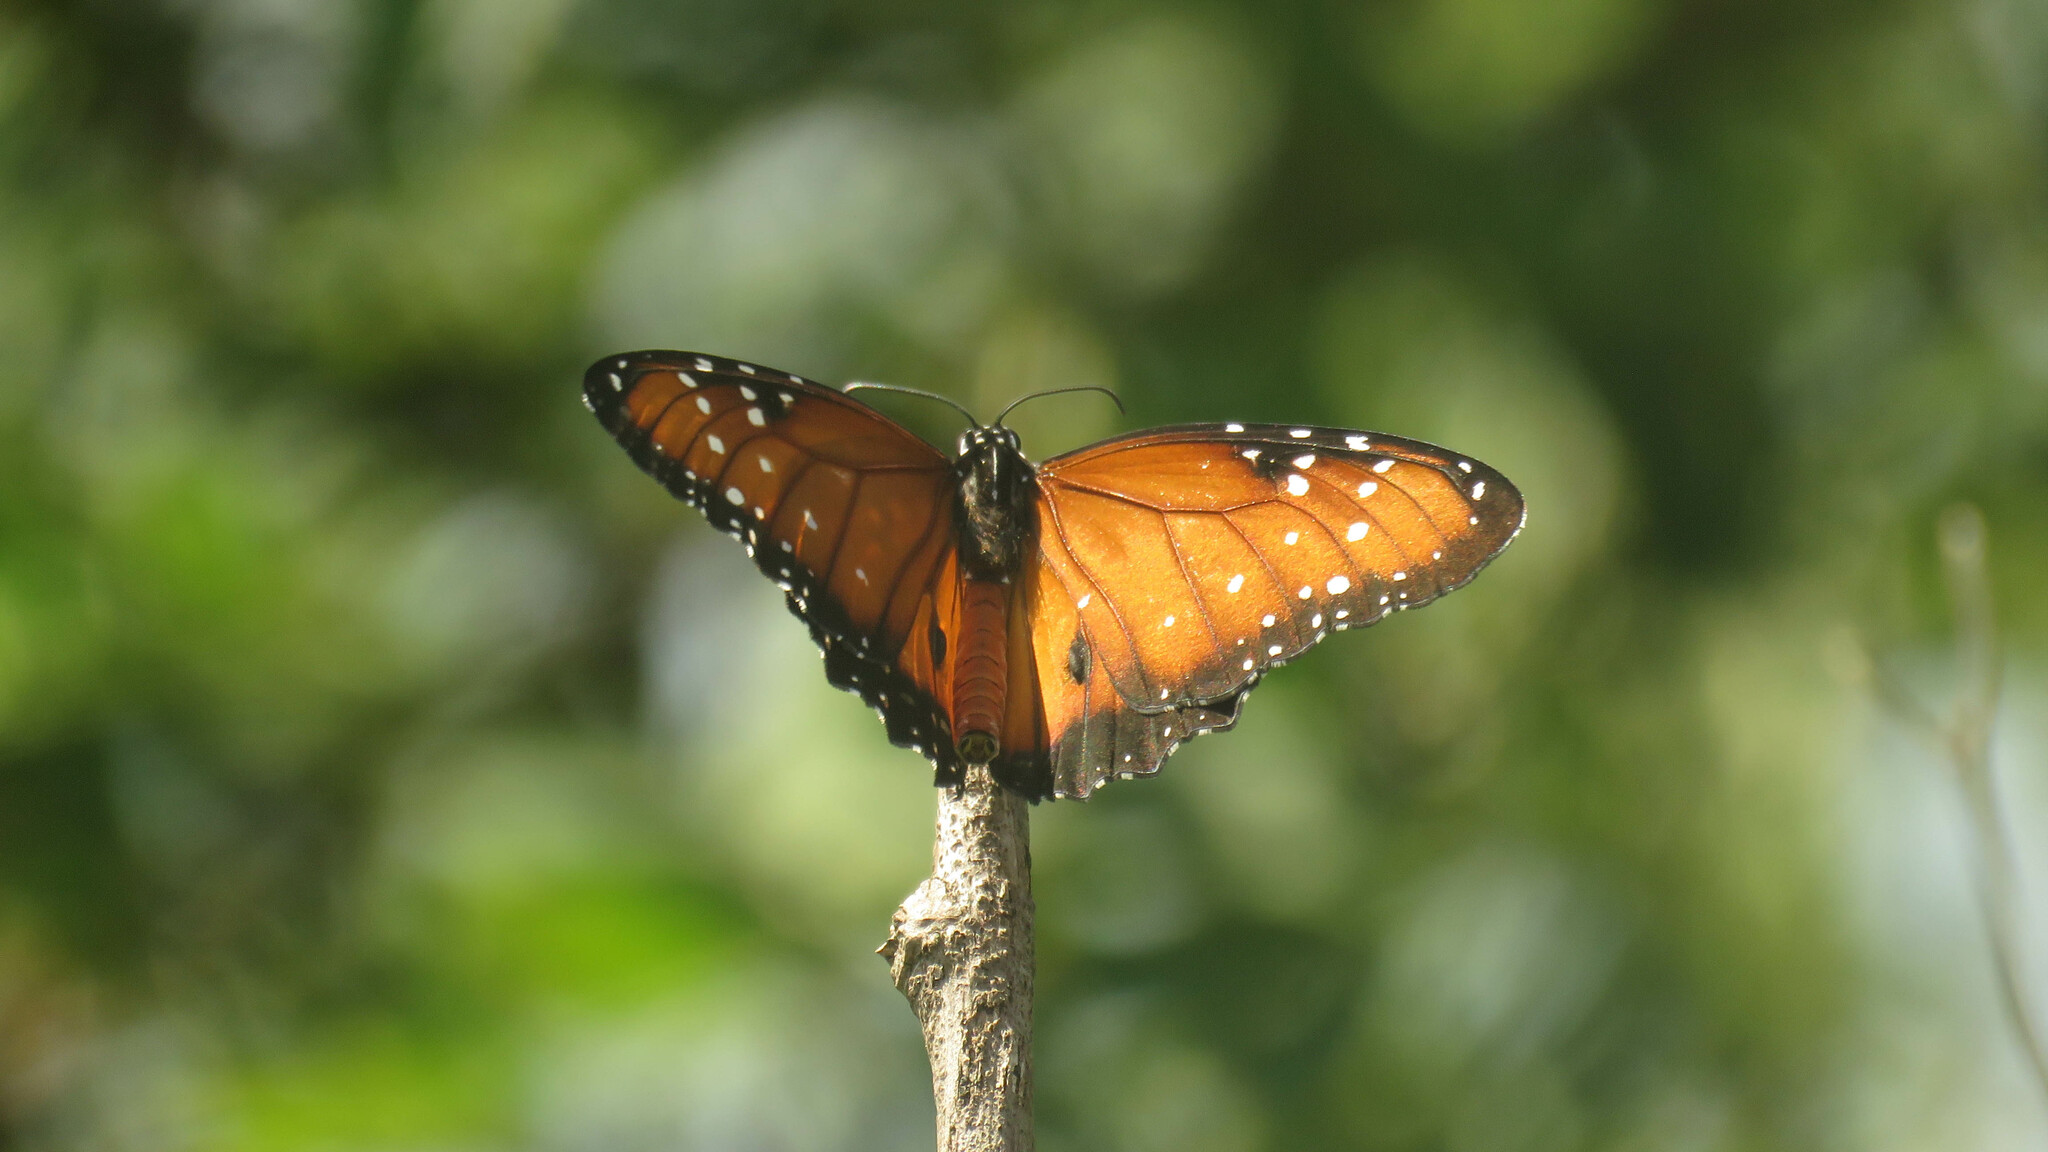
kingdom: Animalia
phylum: Arthropoda
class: Insecta
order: Lepidoptera
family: Nymphalidae
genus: Danaus
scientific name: Danaus gilippus
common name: Queen
